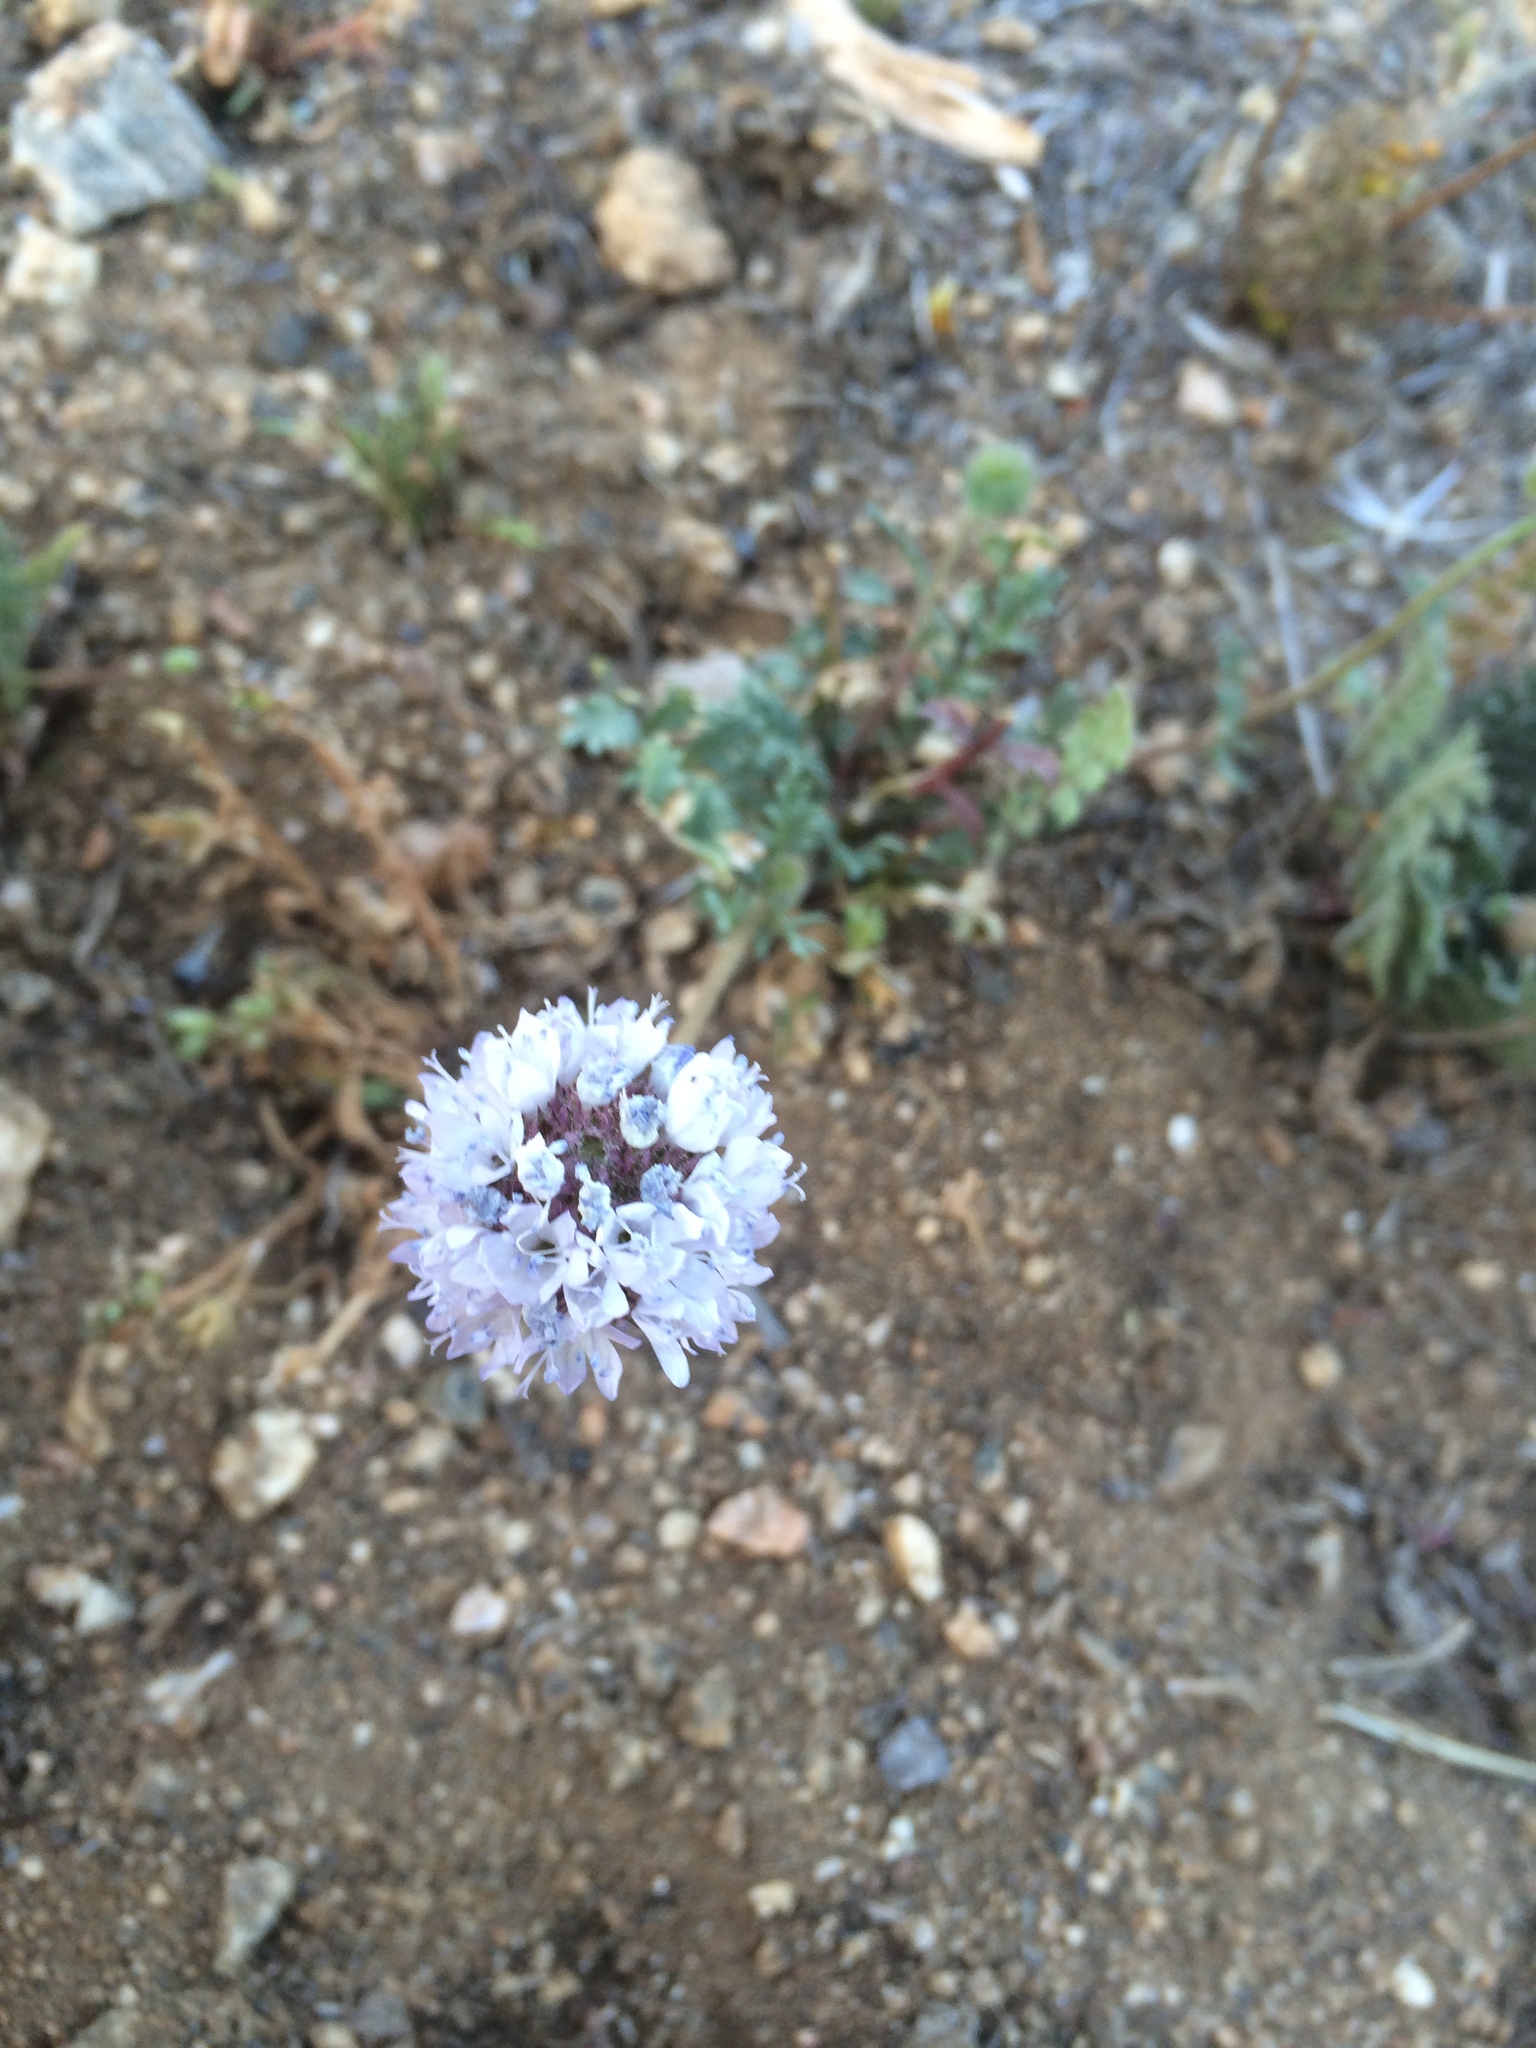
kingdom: Plantae
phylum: Tracheophyta
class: Magnoliopsida
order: Ericales
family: Polemoniaceae
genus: Gilia
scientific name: Gilia capitata
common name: Bluehead gilia
